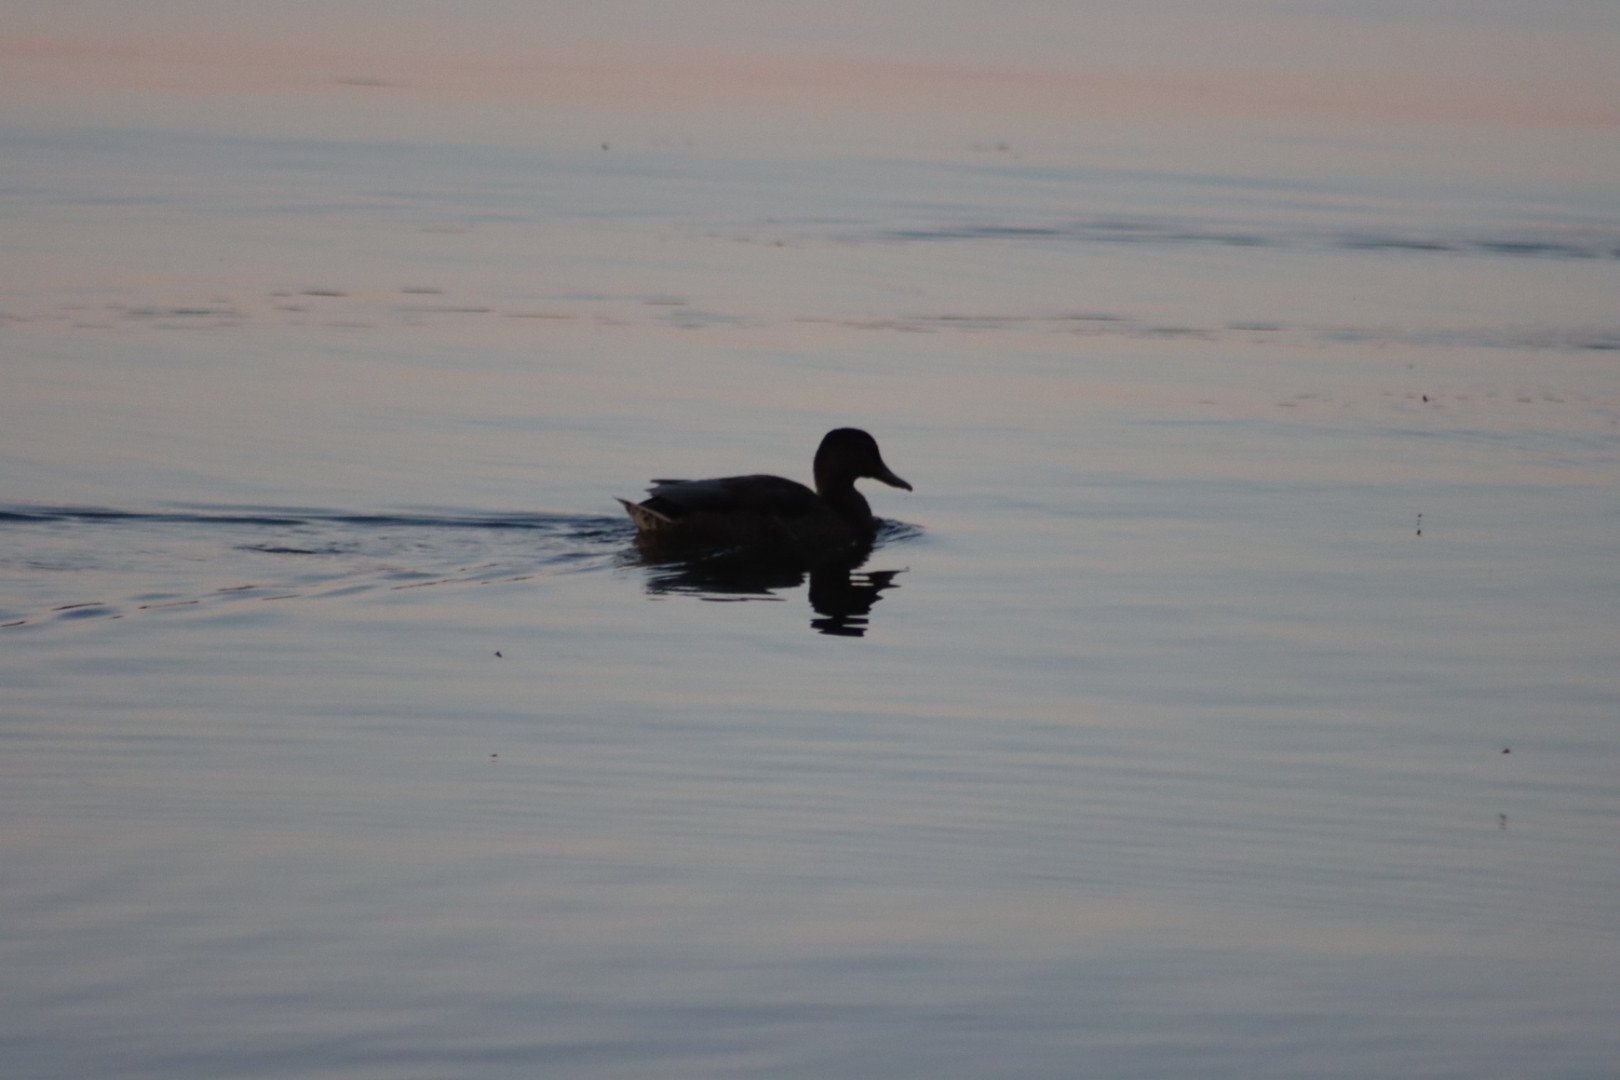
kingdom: Animalia
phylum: Chordata
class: Aves
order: Anseriformes
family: Anatidae
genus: Anas
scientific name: Anas platyrhynchos
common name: Mallard
